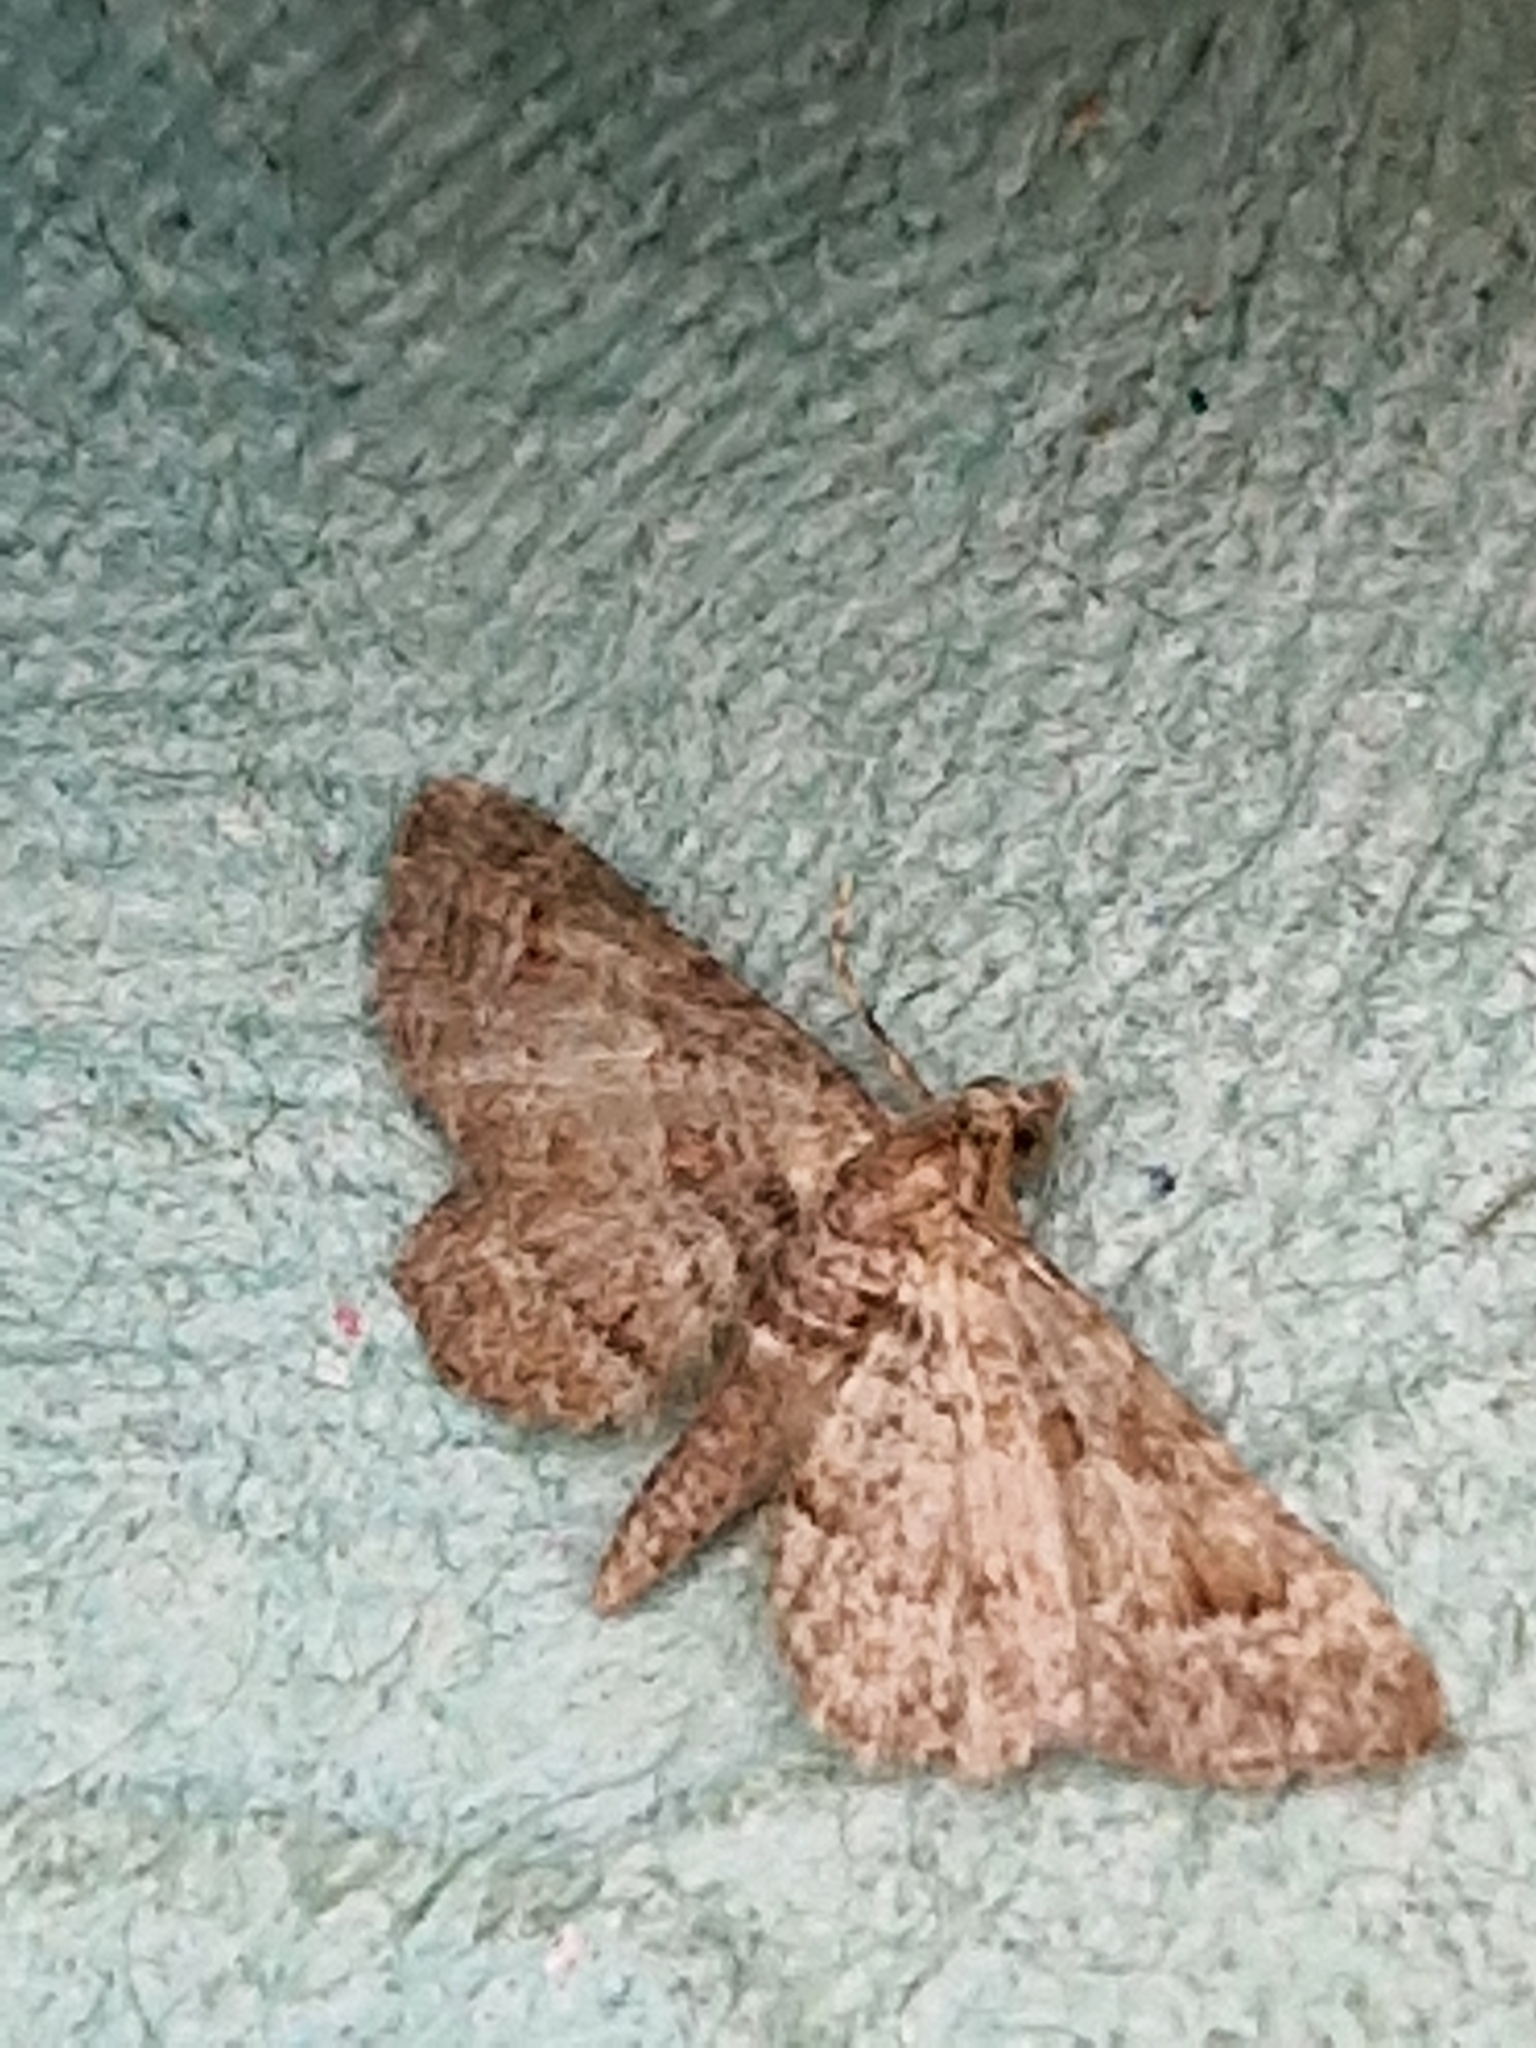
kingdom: Animalia
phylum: Arthropoda
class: Insecta
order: Lepidoptera
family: Geometridae
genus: Gymnoscelis
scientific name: Gymnoscelis rufifasciata
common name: Double-striped pug
